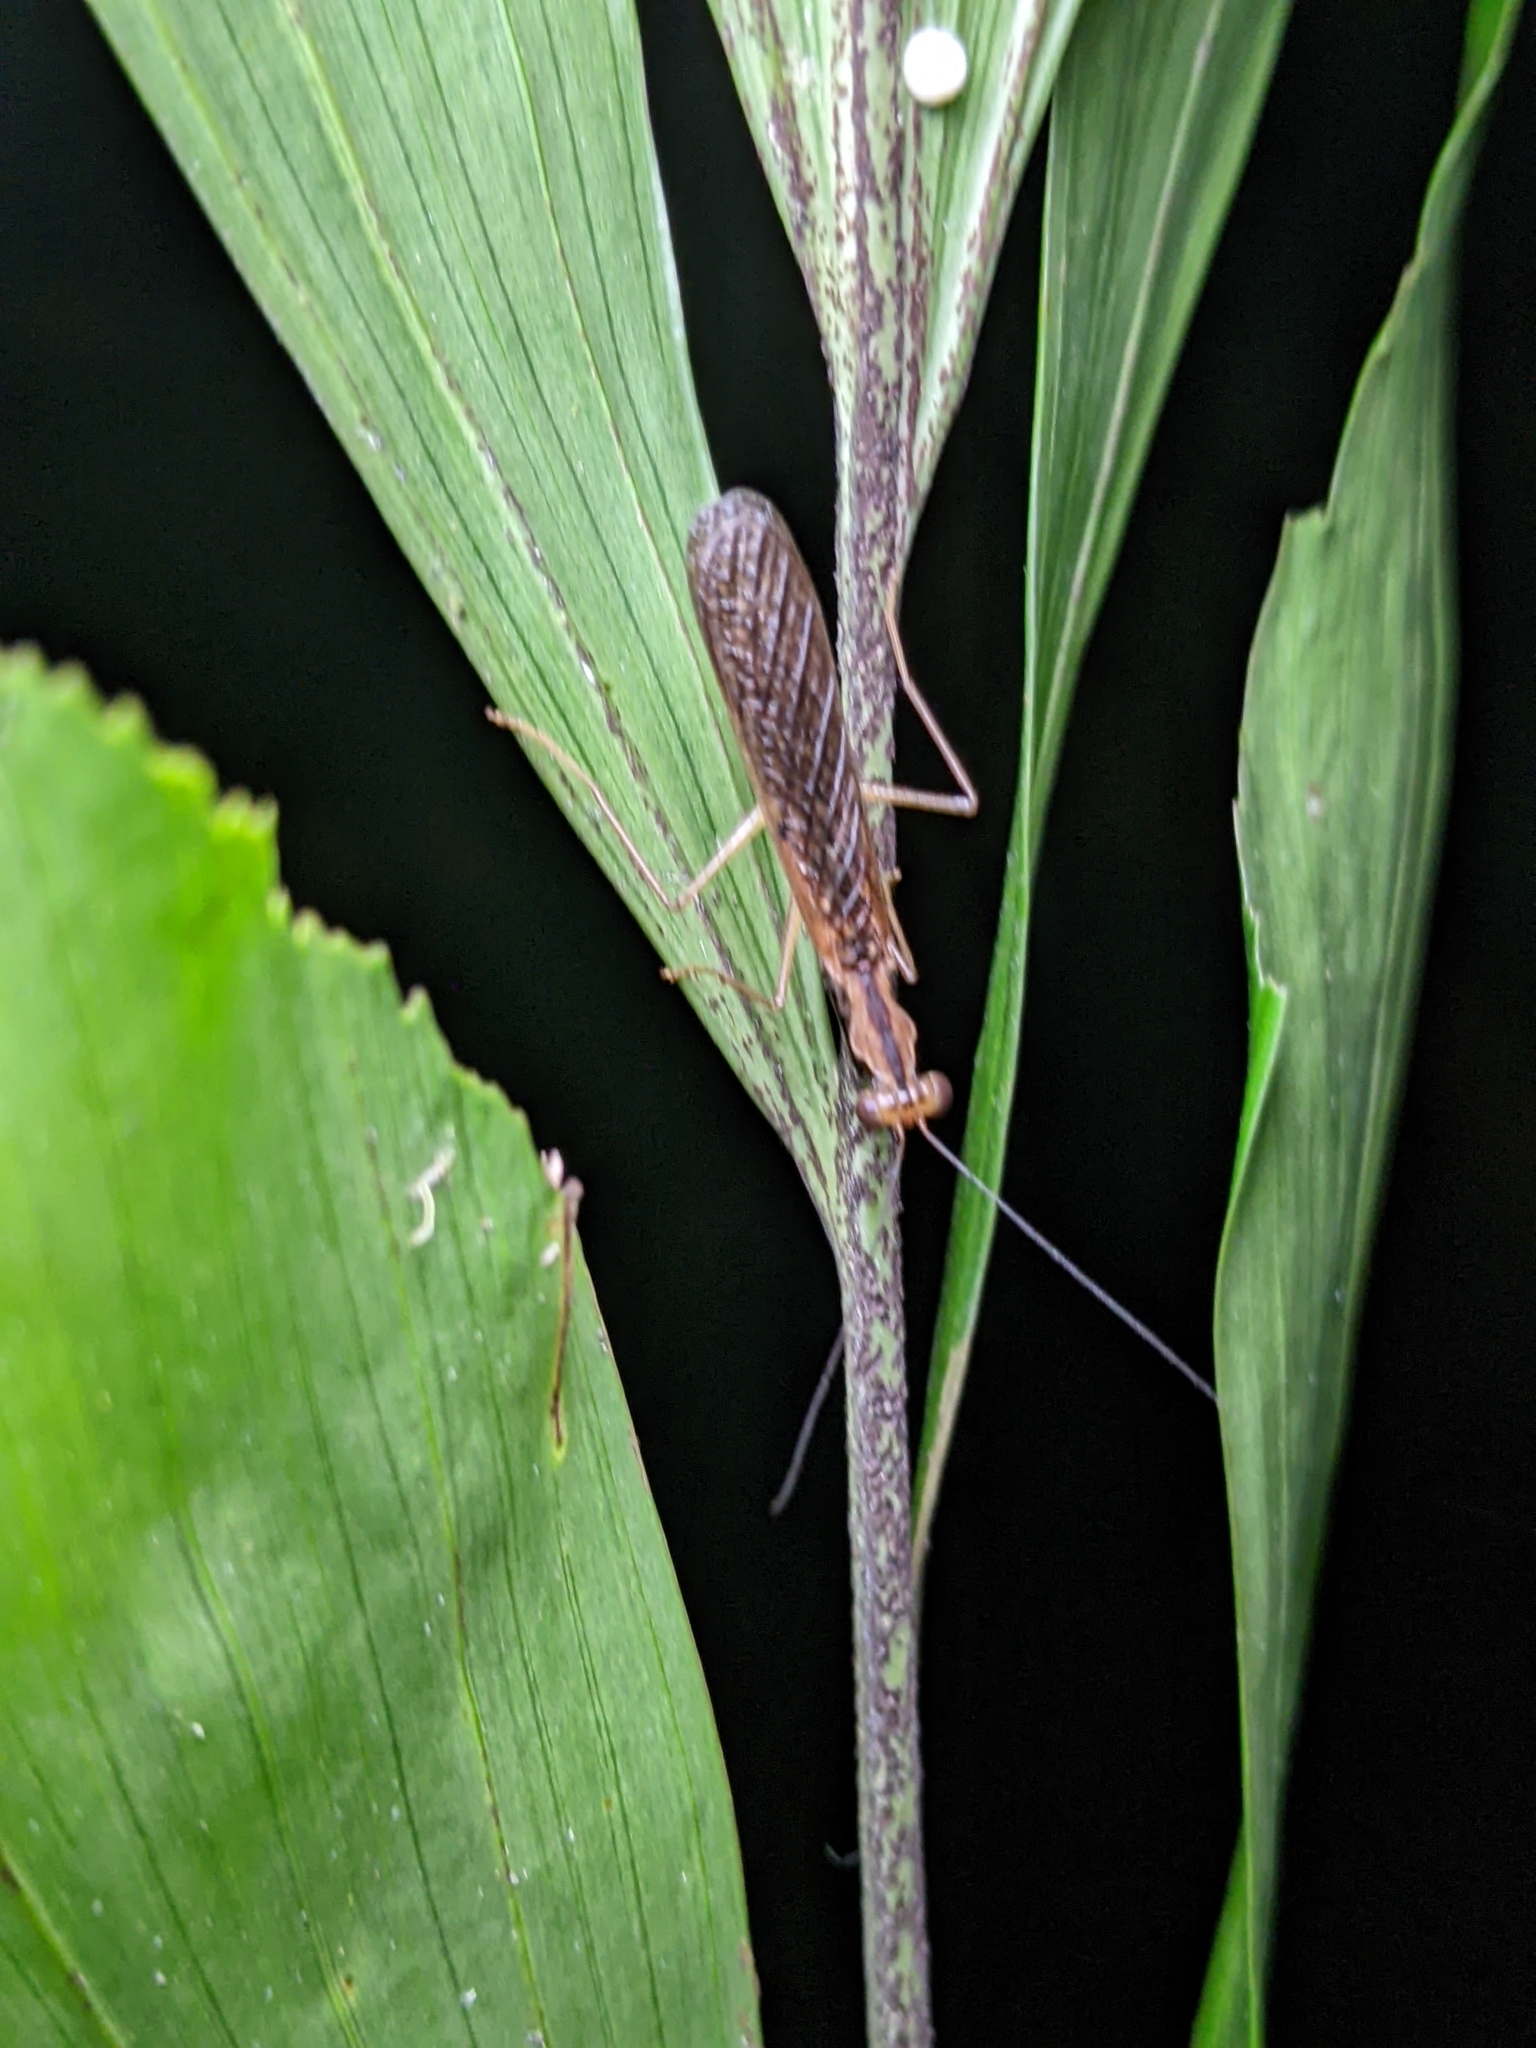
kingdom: Animalia
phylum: Arthropoda
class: Insecta
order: Mantodea
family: Gonypetidae
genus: Amantis
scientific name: Amantis reticulata
